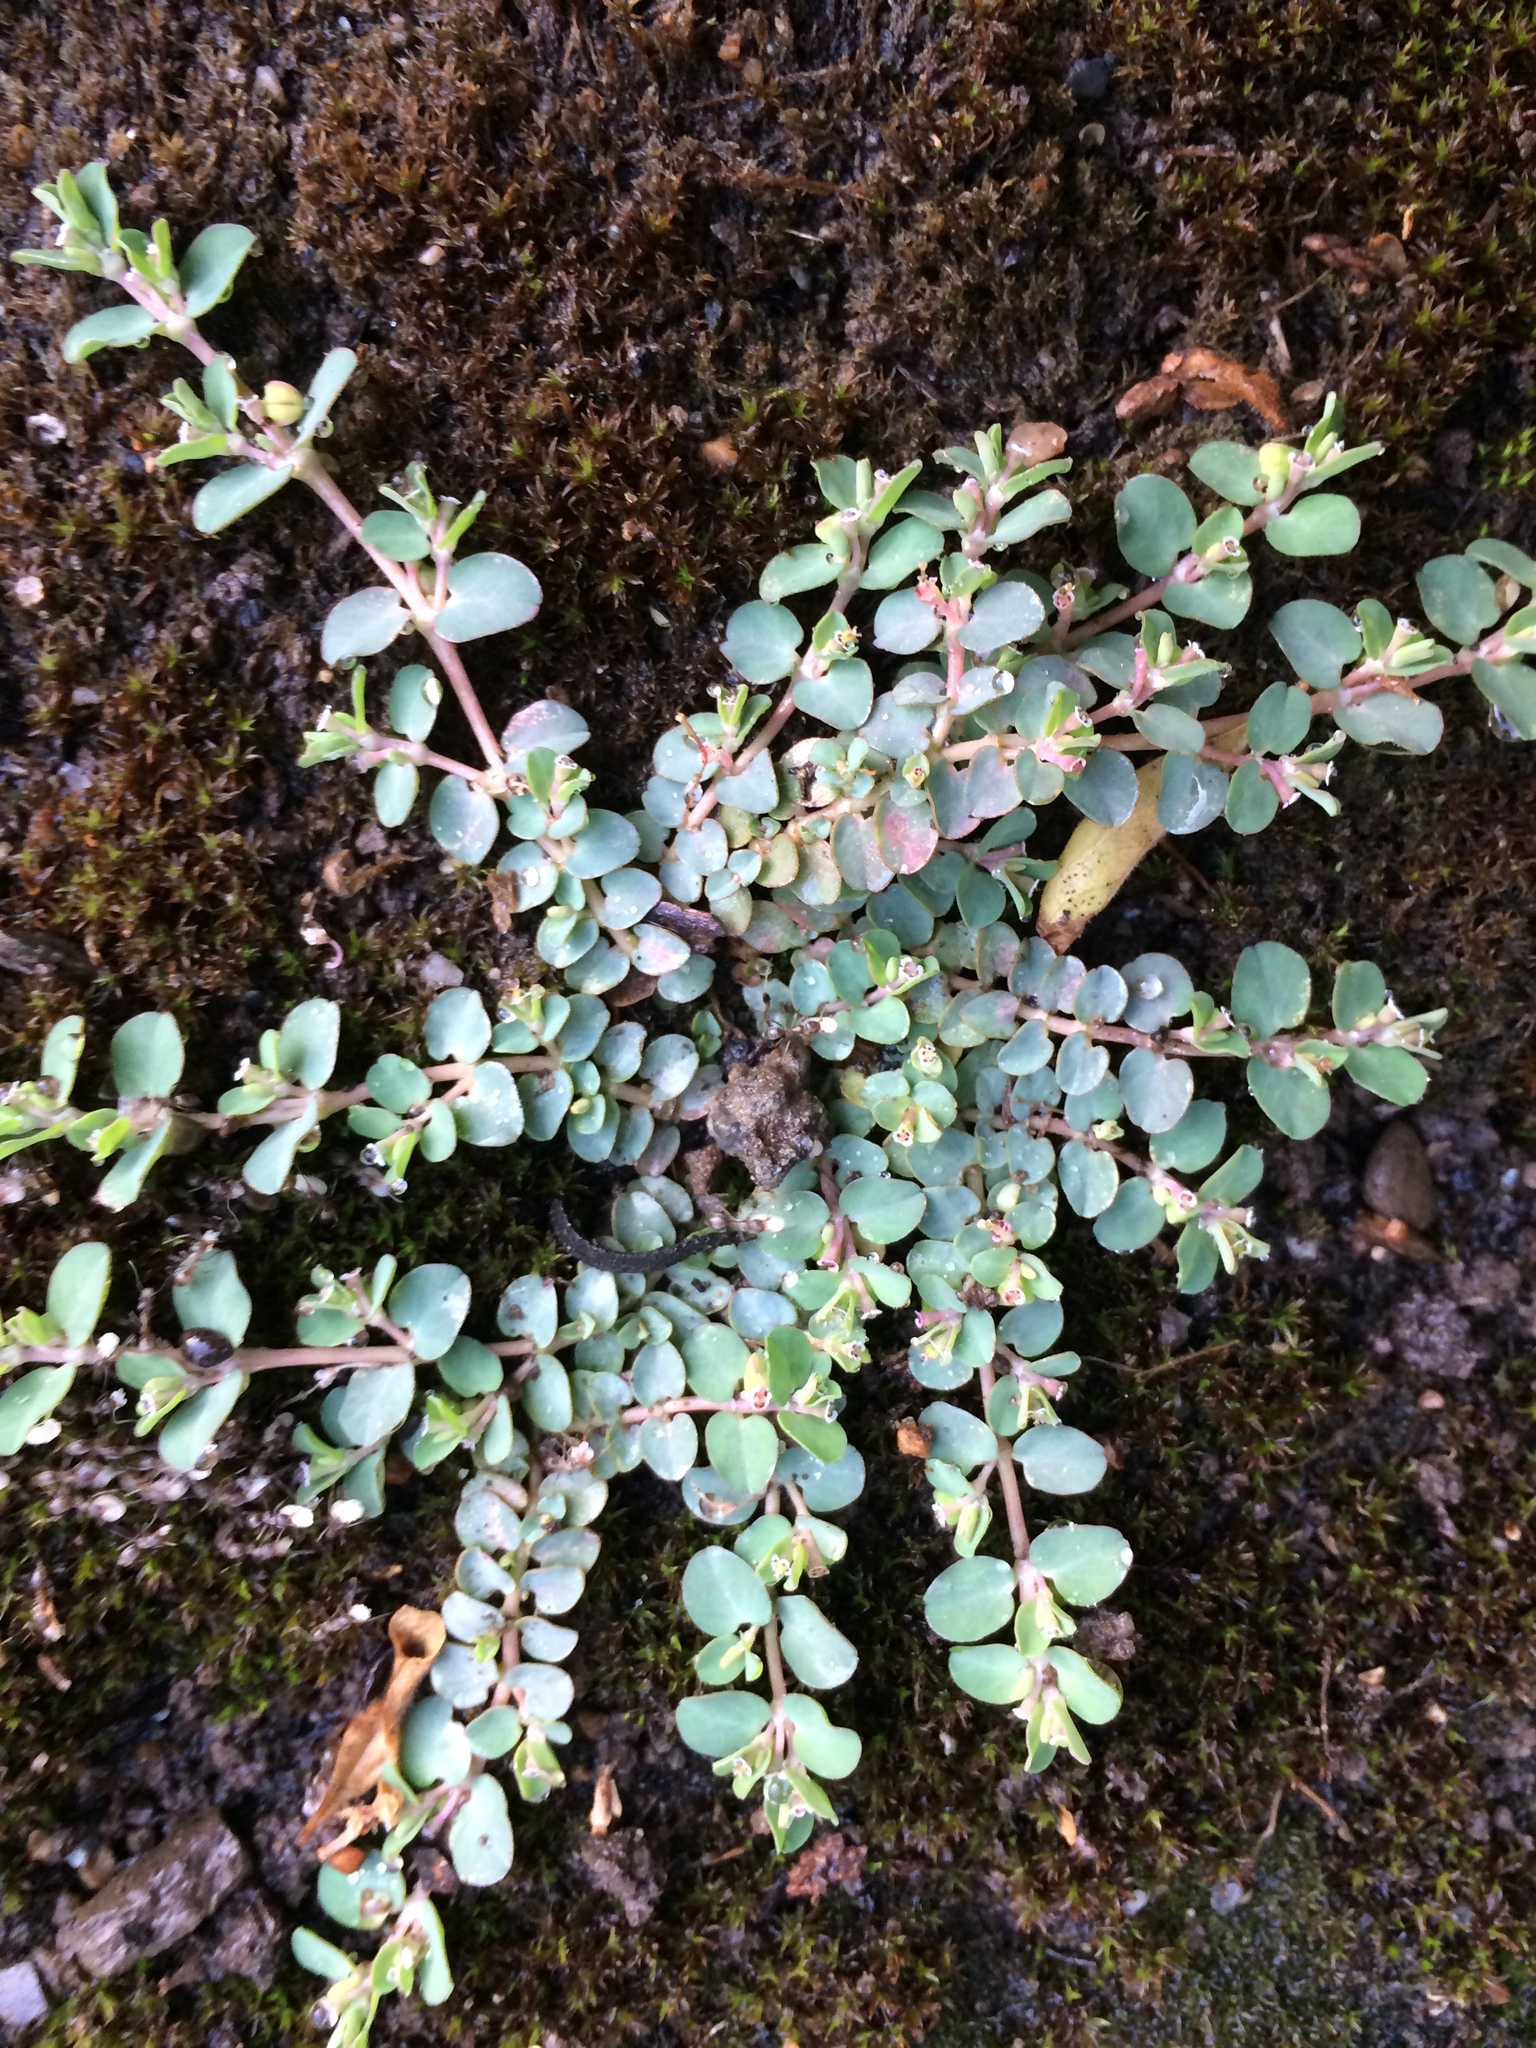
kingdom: Plantae
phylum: Tracheophyta
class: Magnoliopsida
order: Malpighiales
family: Euphorbiaceae
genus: Euphorbia
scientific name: Euphorbia serpens
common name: Matted sandmat
